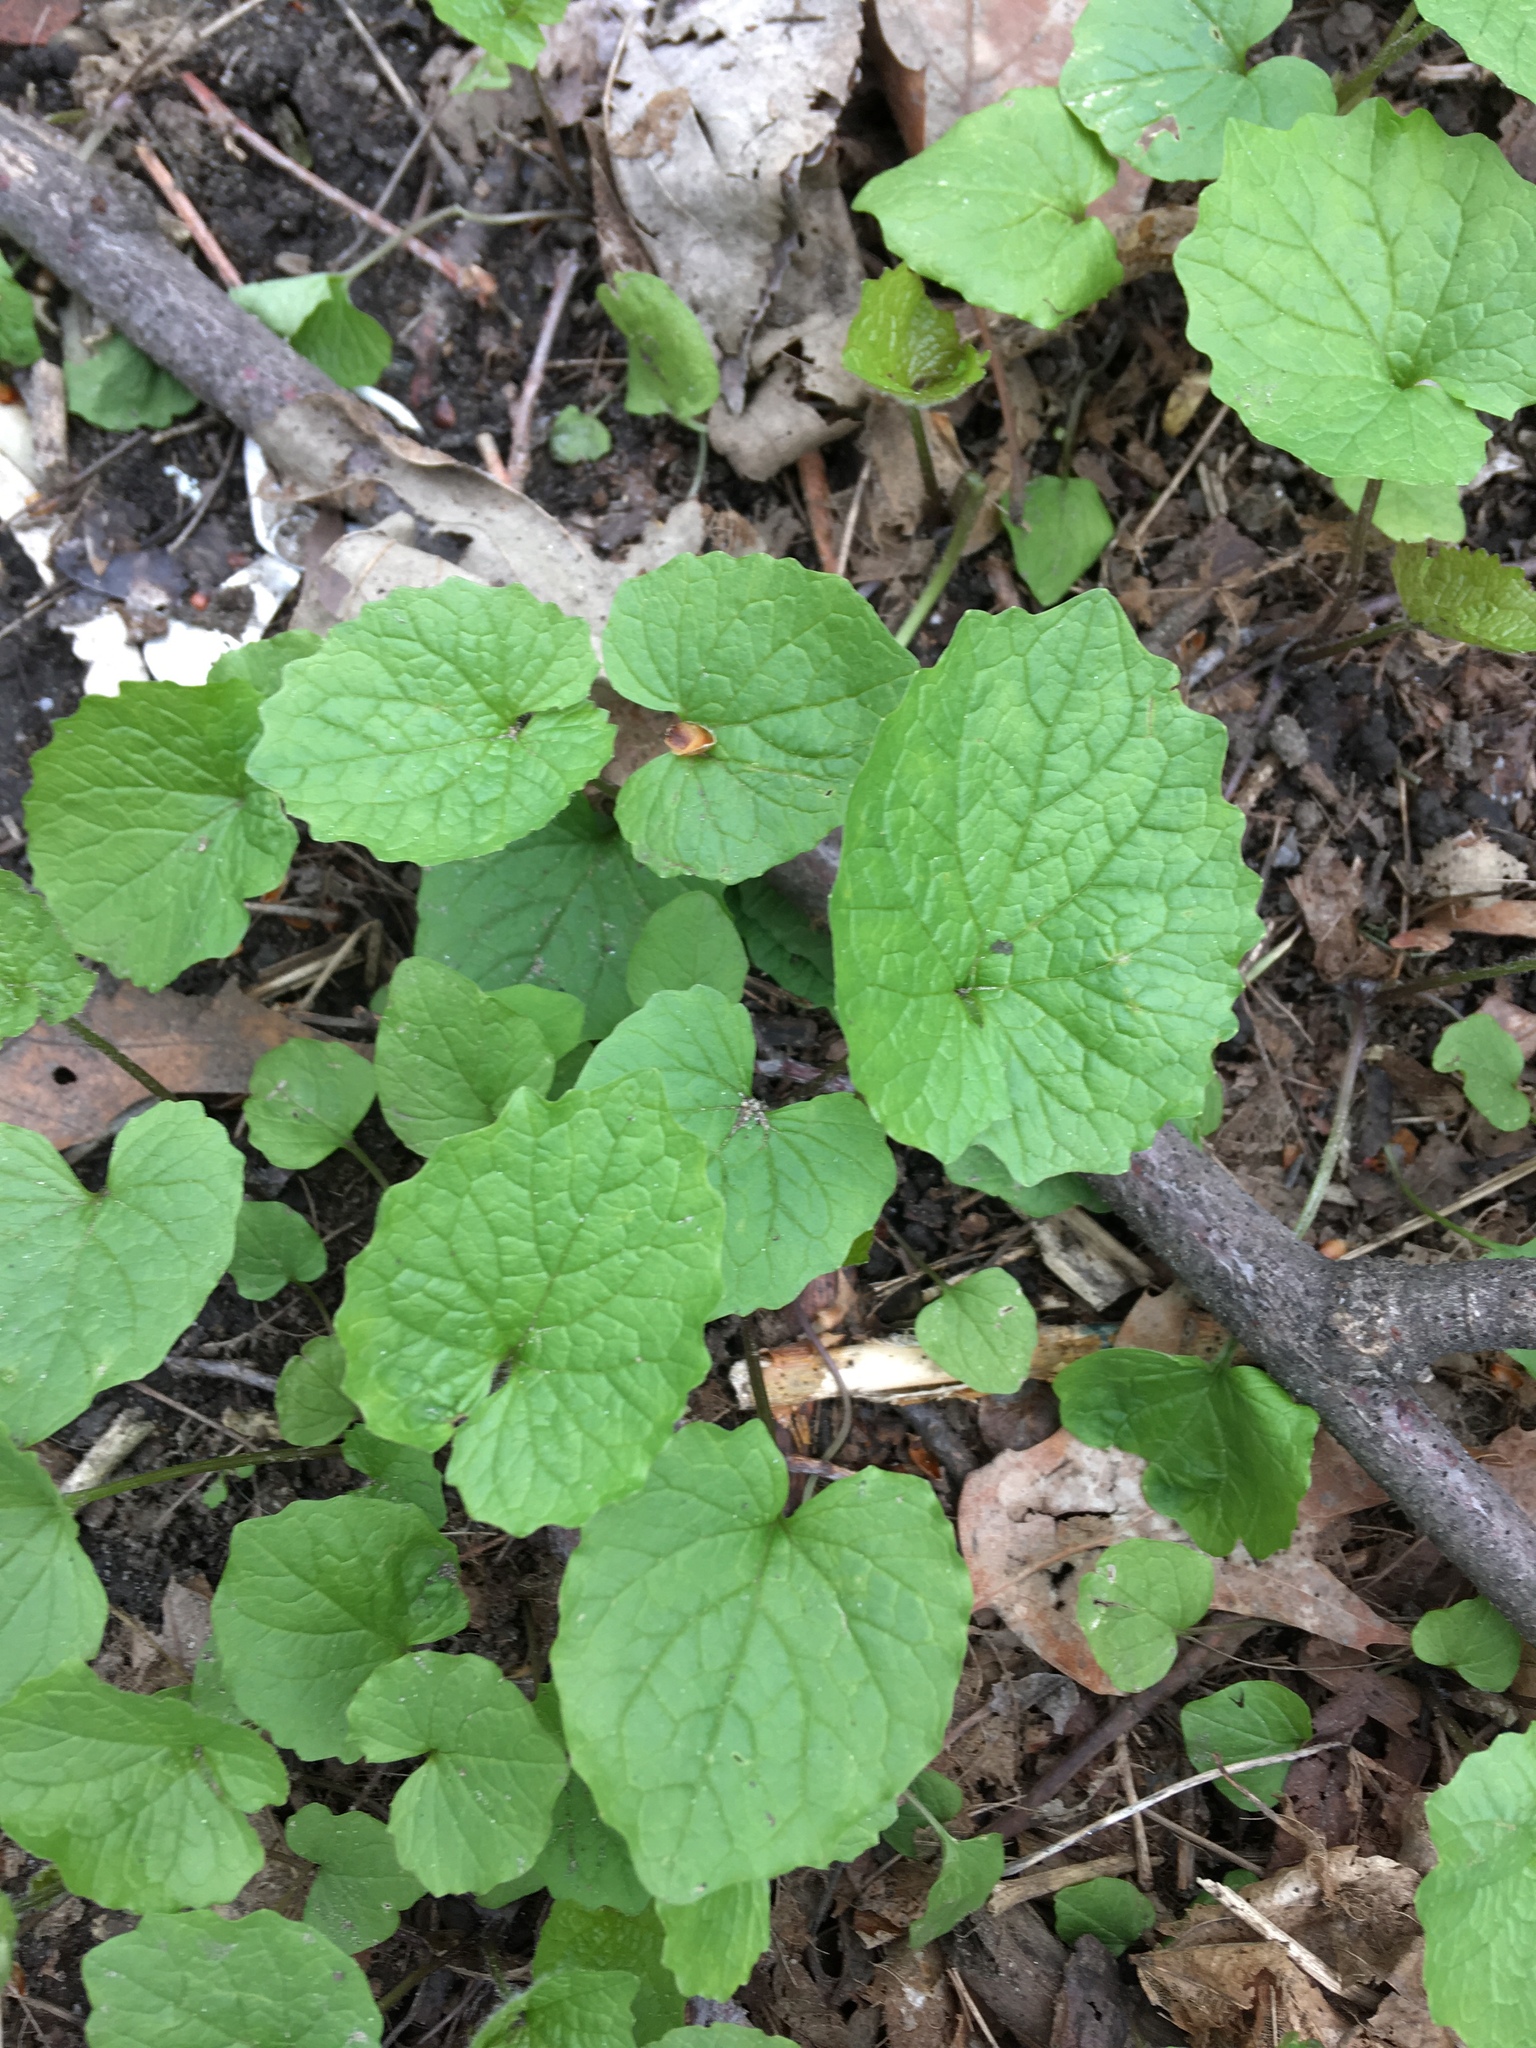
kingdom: Plantae
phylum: Tracheophyta
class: Magnoliopsida
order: Brassicales
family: Brassicaceae
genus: Alliaria
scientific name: Alliaria petiolata
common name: Garlic mustard
